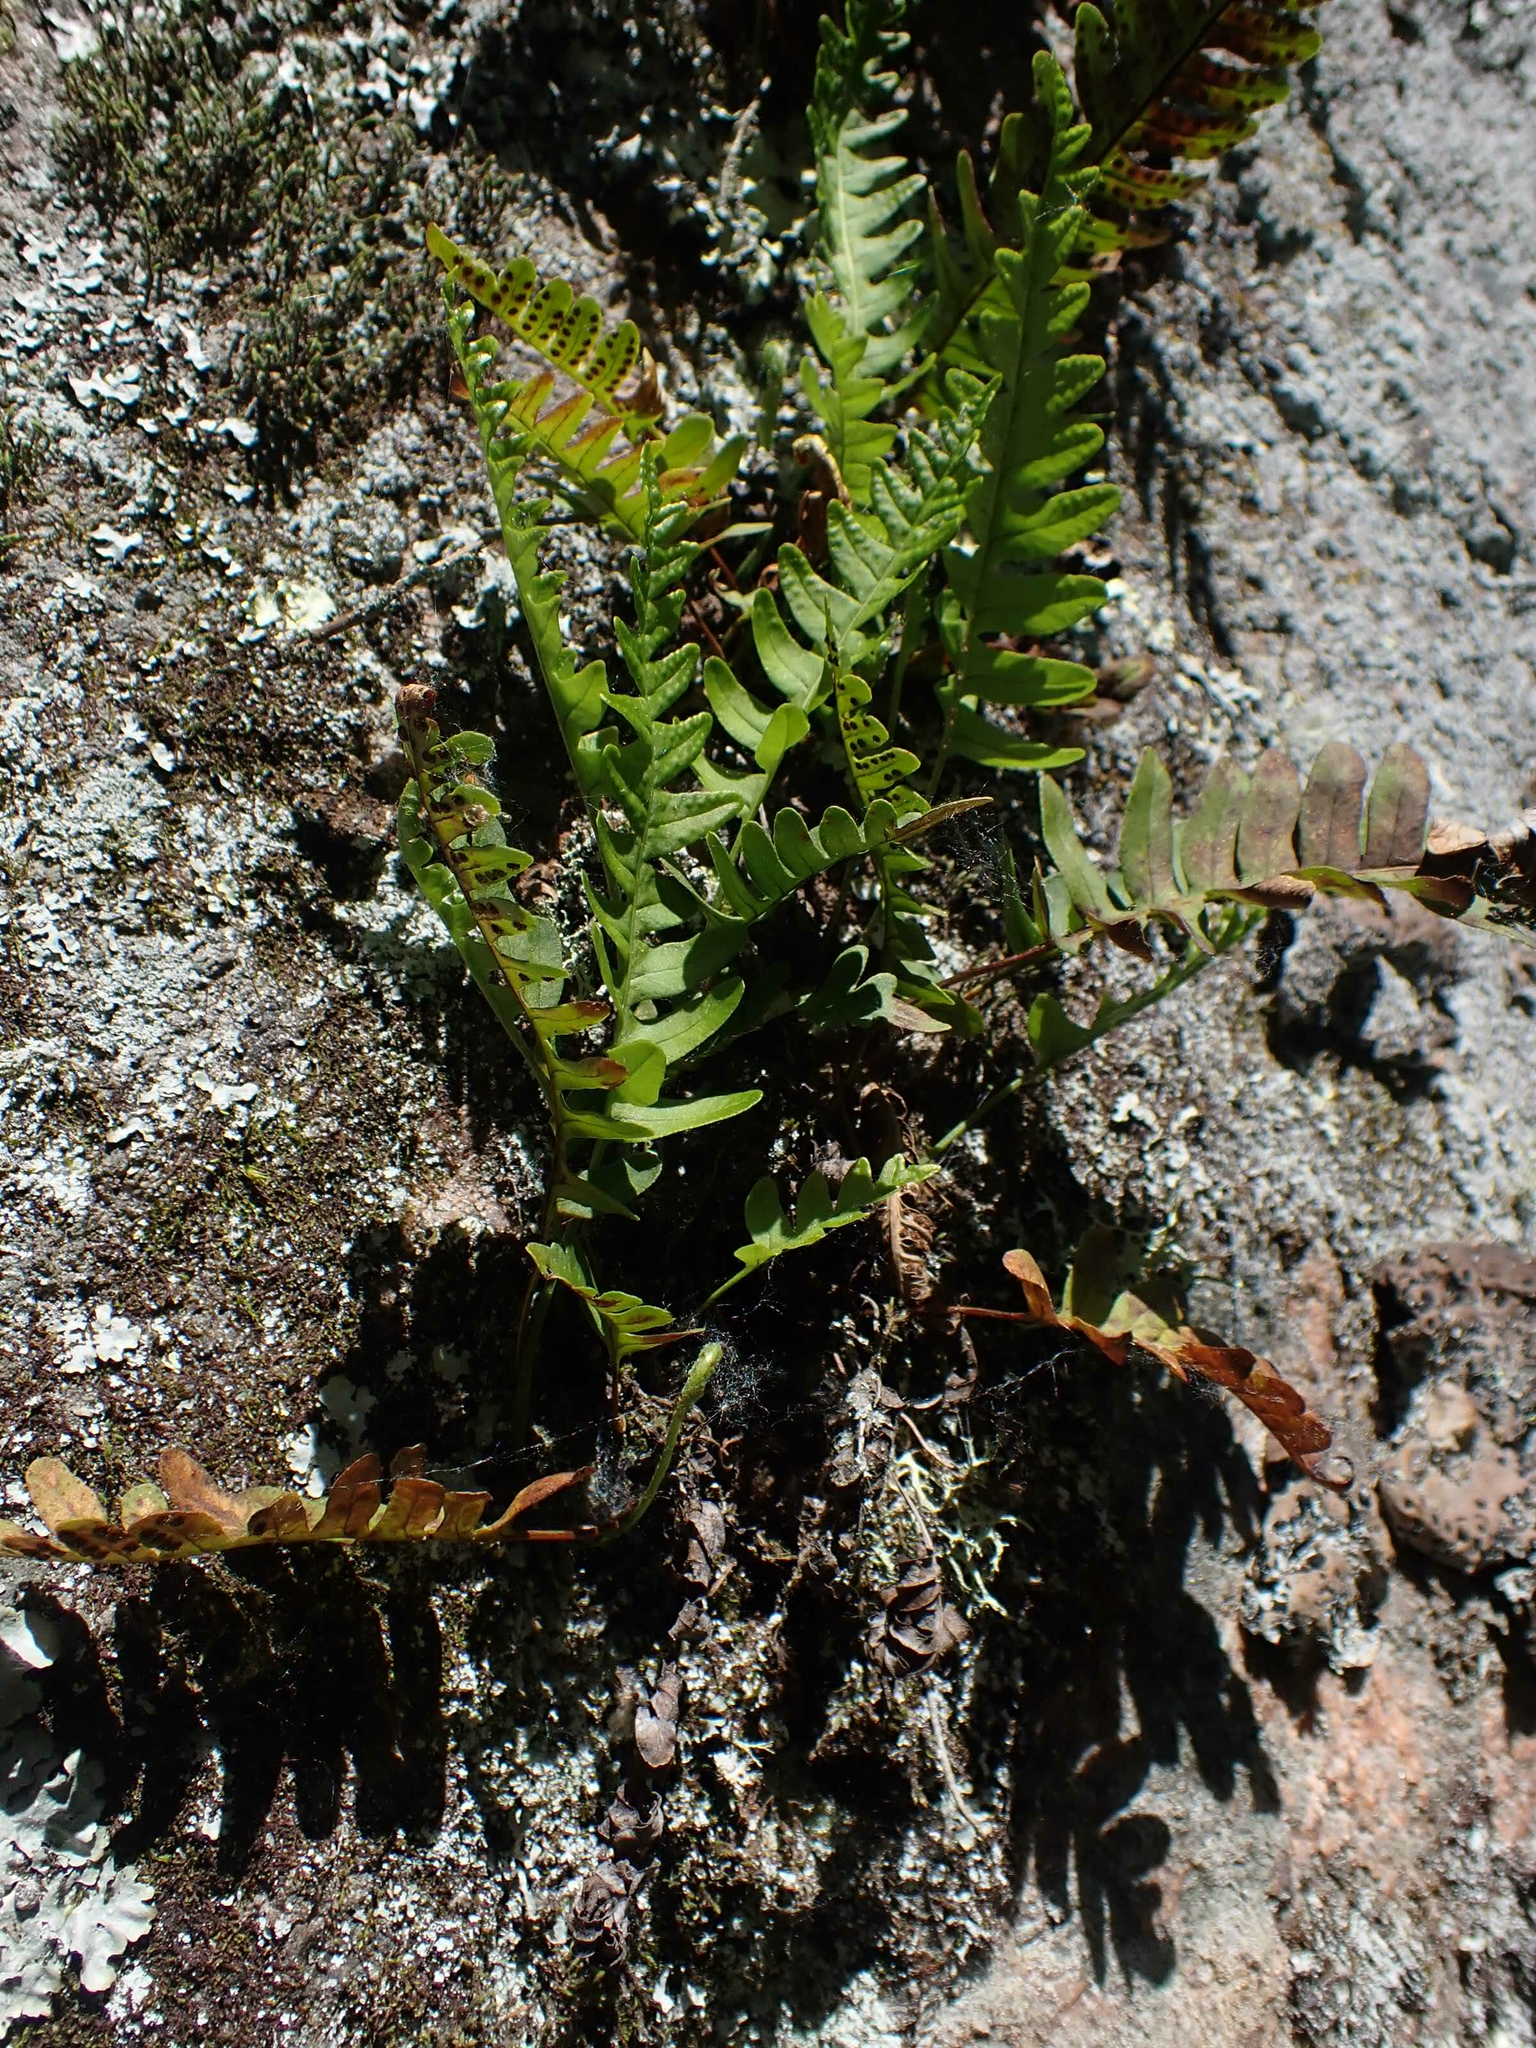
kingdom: Plantae
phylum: Tracheophyta
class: Polypodiopsida
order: Polypodiales
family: Polypodiaceae
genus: Polypodium
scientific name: Polypodium virginianum
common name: American wall fern
